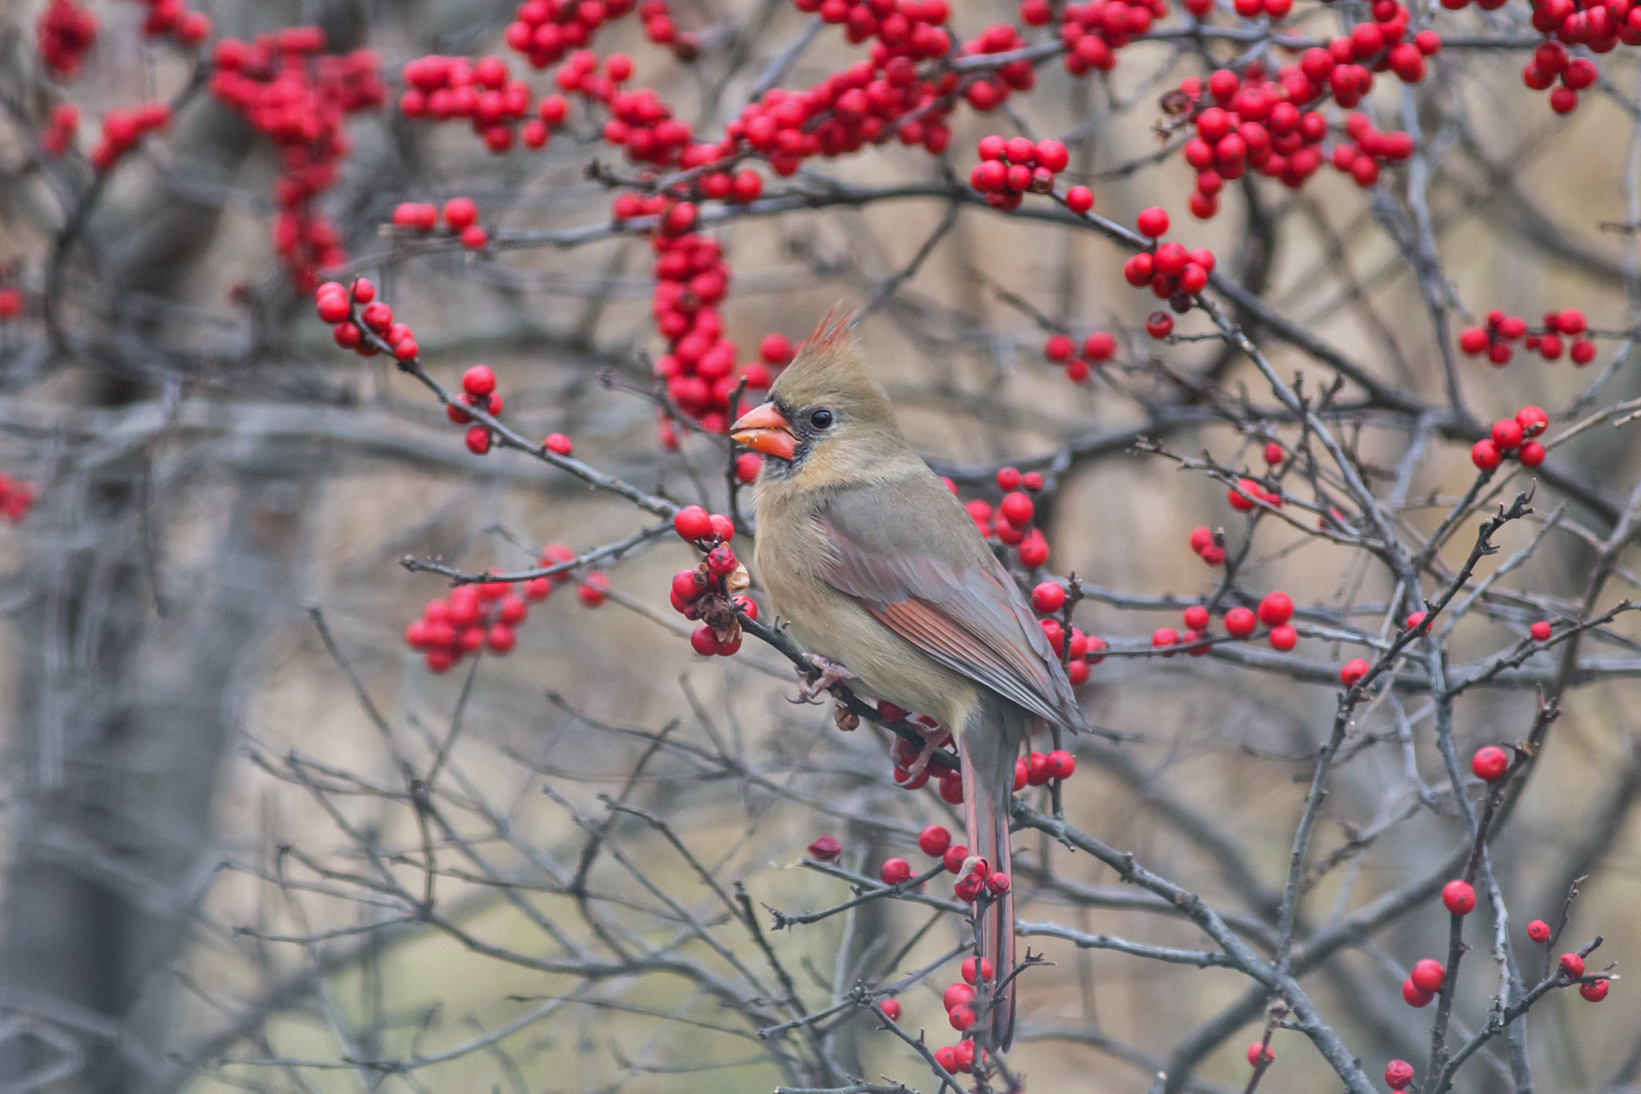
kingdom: Animalia
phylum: Chordata
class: Aves
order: Passeriformes
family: Cardinalidae
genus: Cardinalis
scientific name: Cardinalis cardinalis
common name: Northern cardinal
